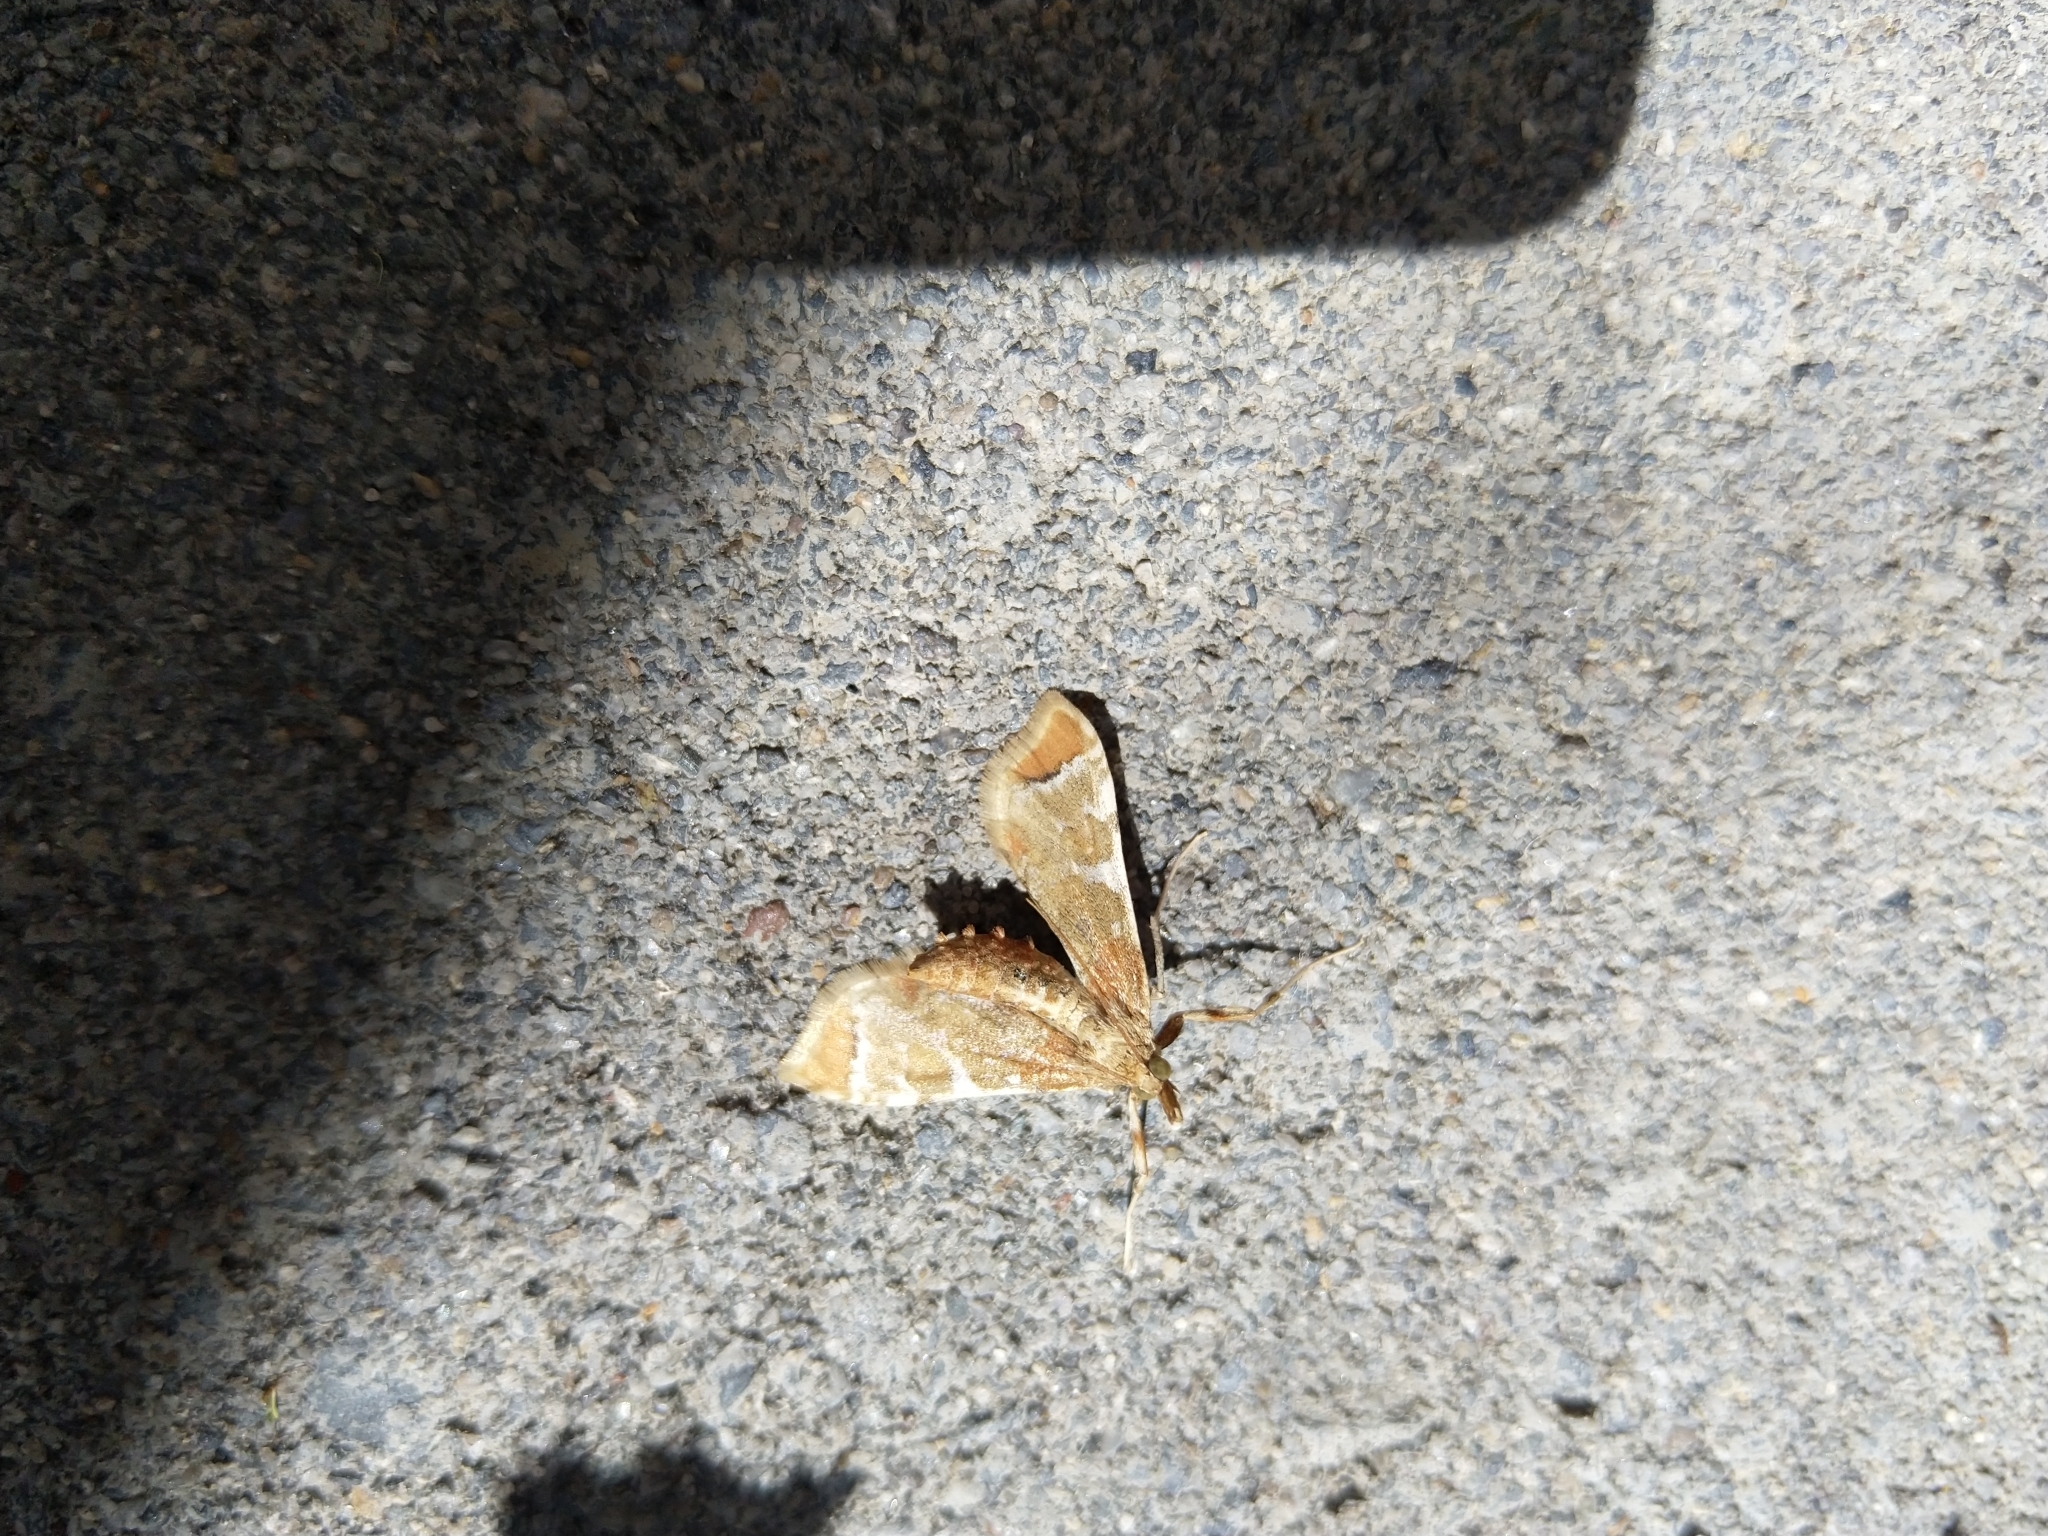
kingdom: Animalia
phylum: Arthropoda
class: Insecta
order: Lepidoptera
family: Crambidae
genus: Sceliodes
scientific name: Sceliodes cordalis
